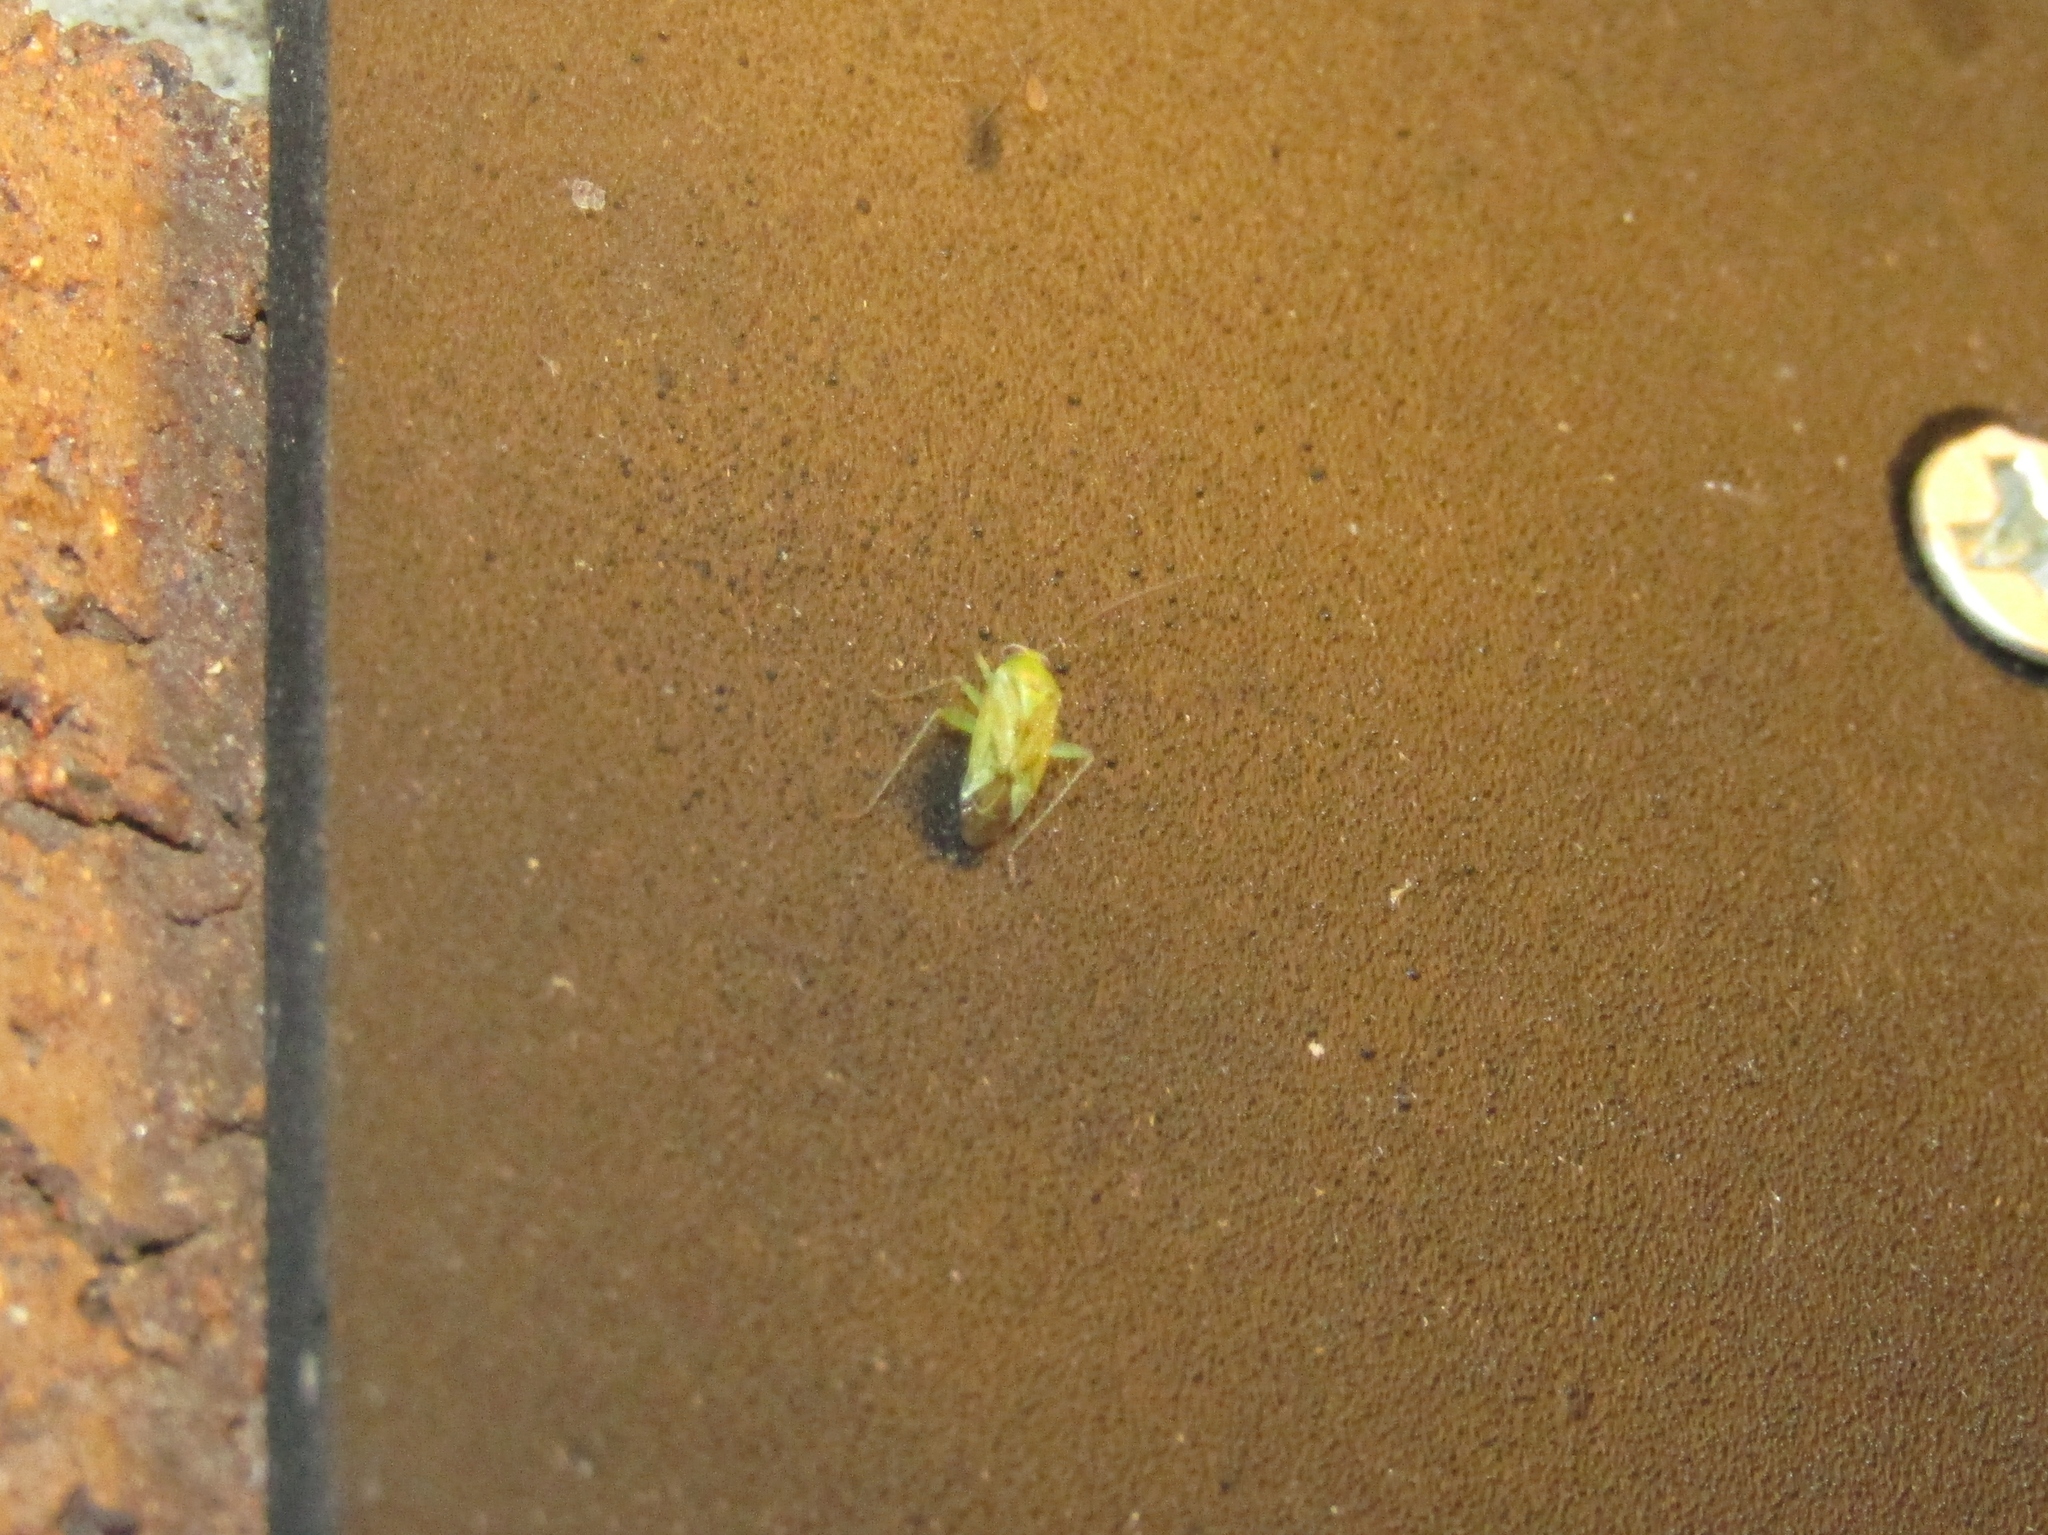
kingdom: Animalia
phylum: Arthropoda
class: Insecta
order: Hemiptera
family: Miridae
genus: Taylorilygus
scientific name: Taylorilygus apicalis
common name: Plant bug
